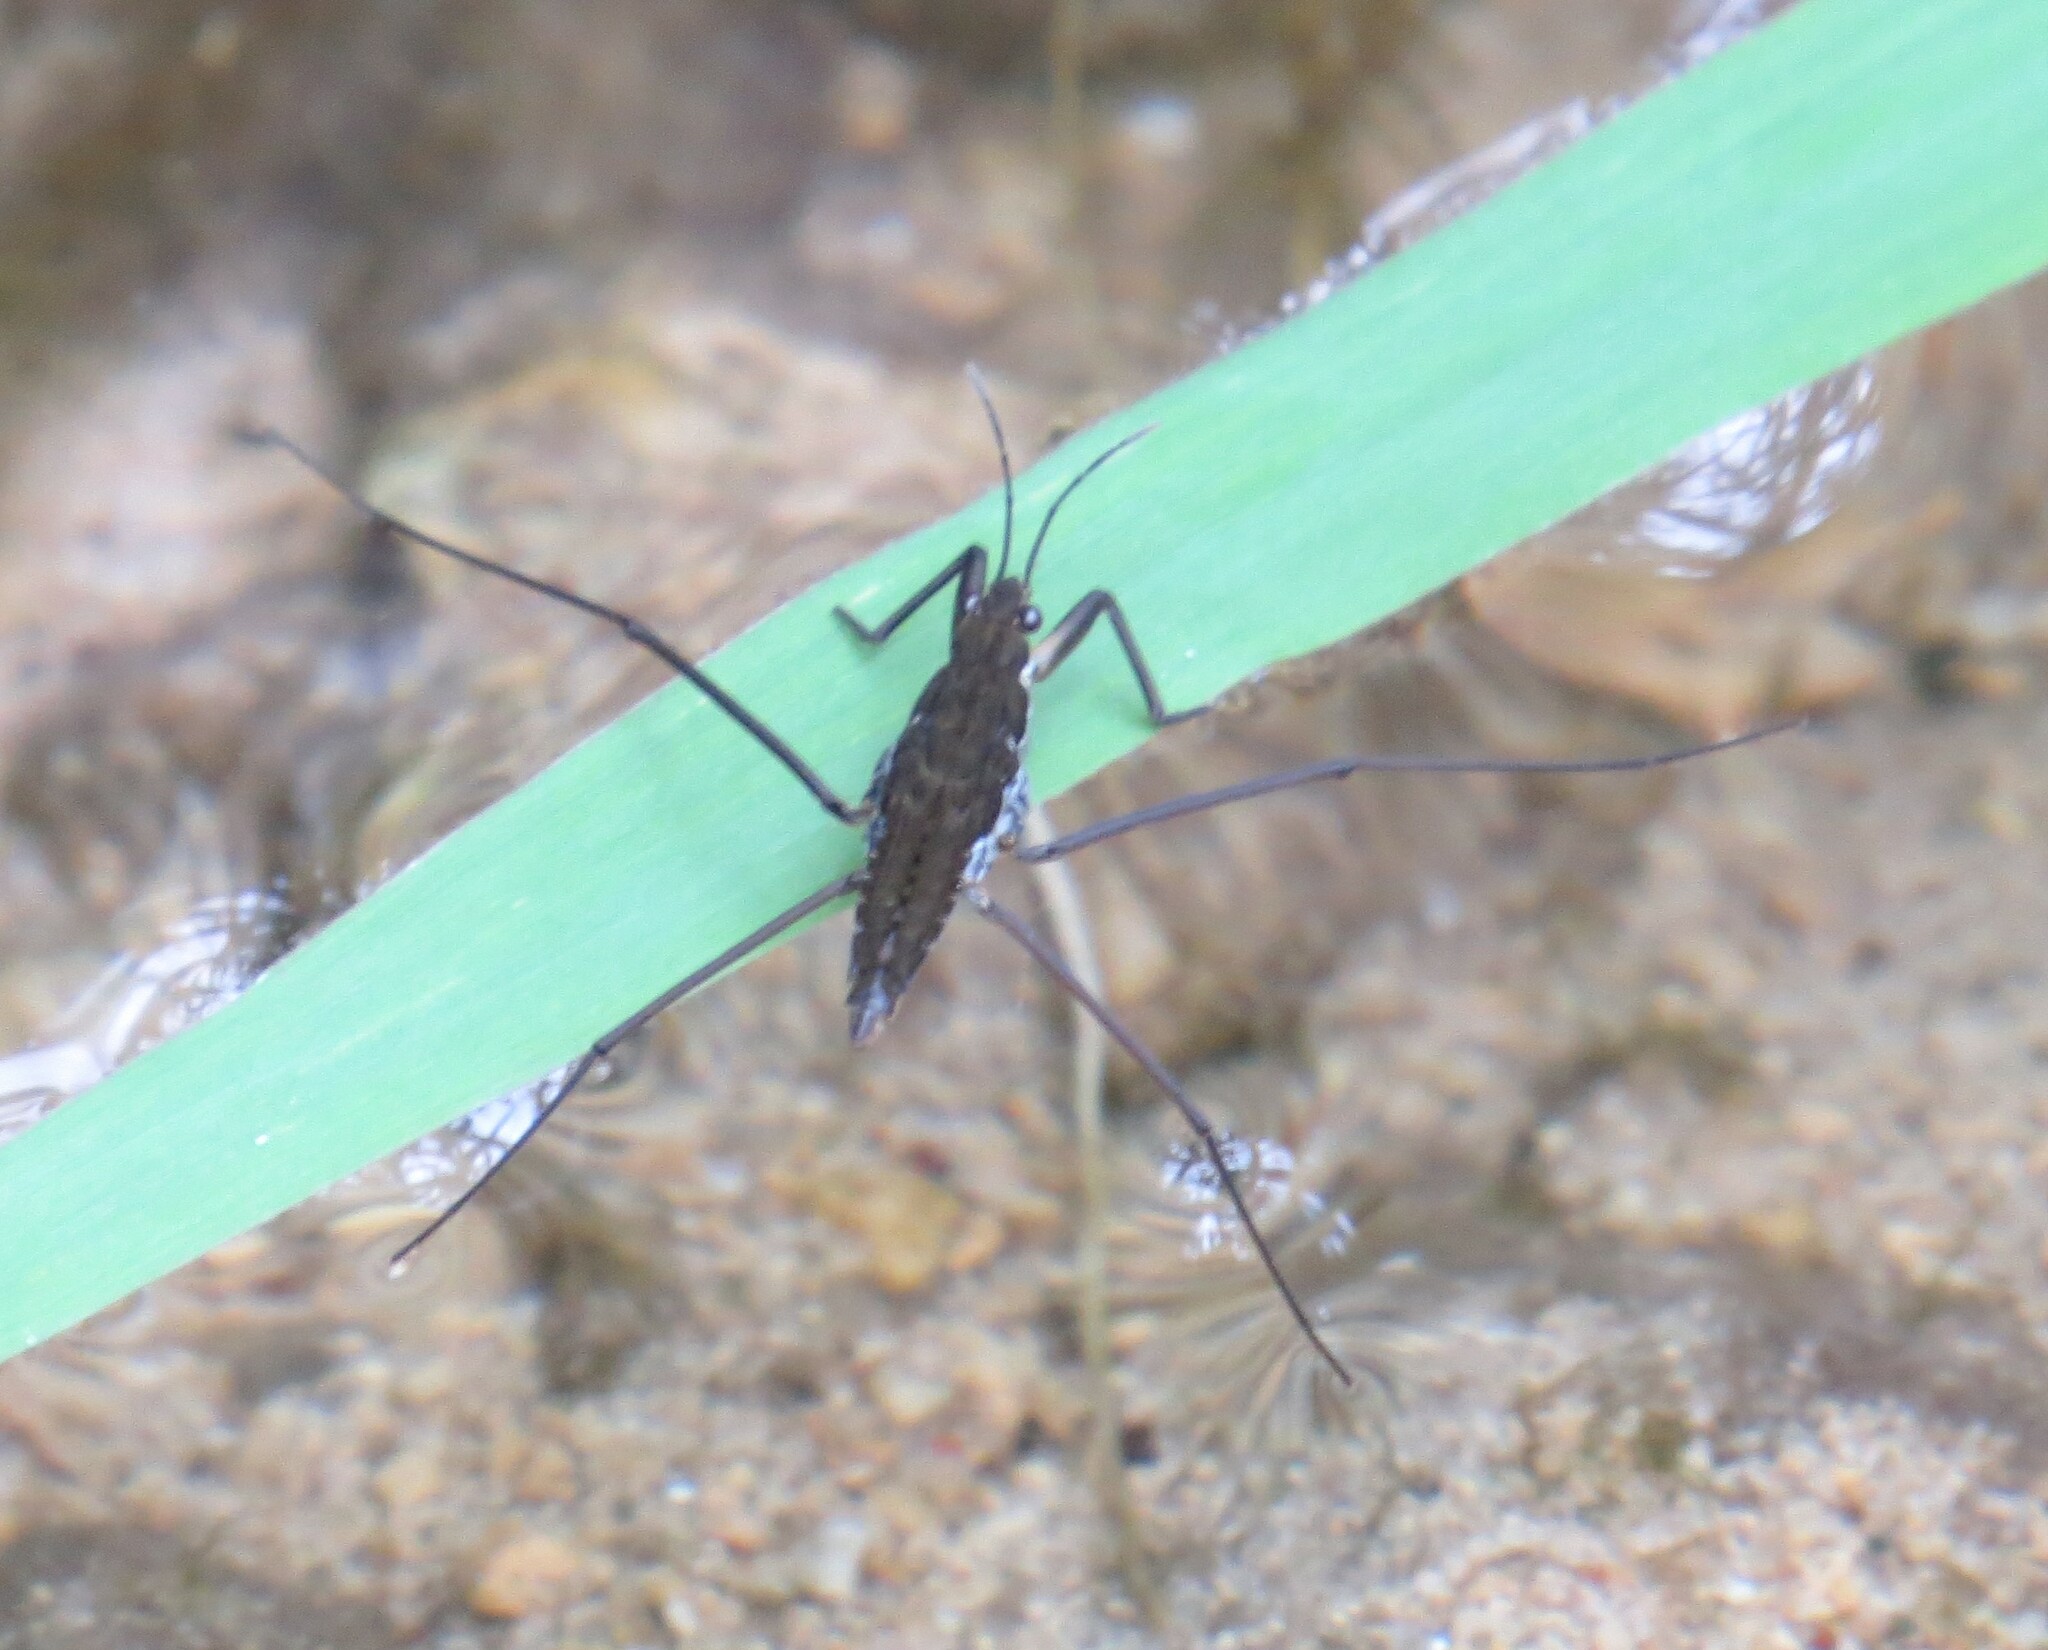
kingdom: Animalia
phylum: Arthropoda
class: Insecta
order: Hemiptera
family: Gerridae
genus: Aquarius
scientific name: Aquarius remigis
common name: Common water strider
